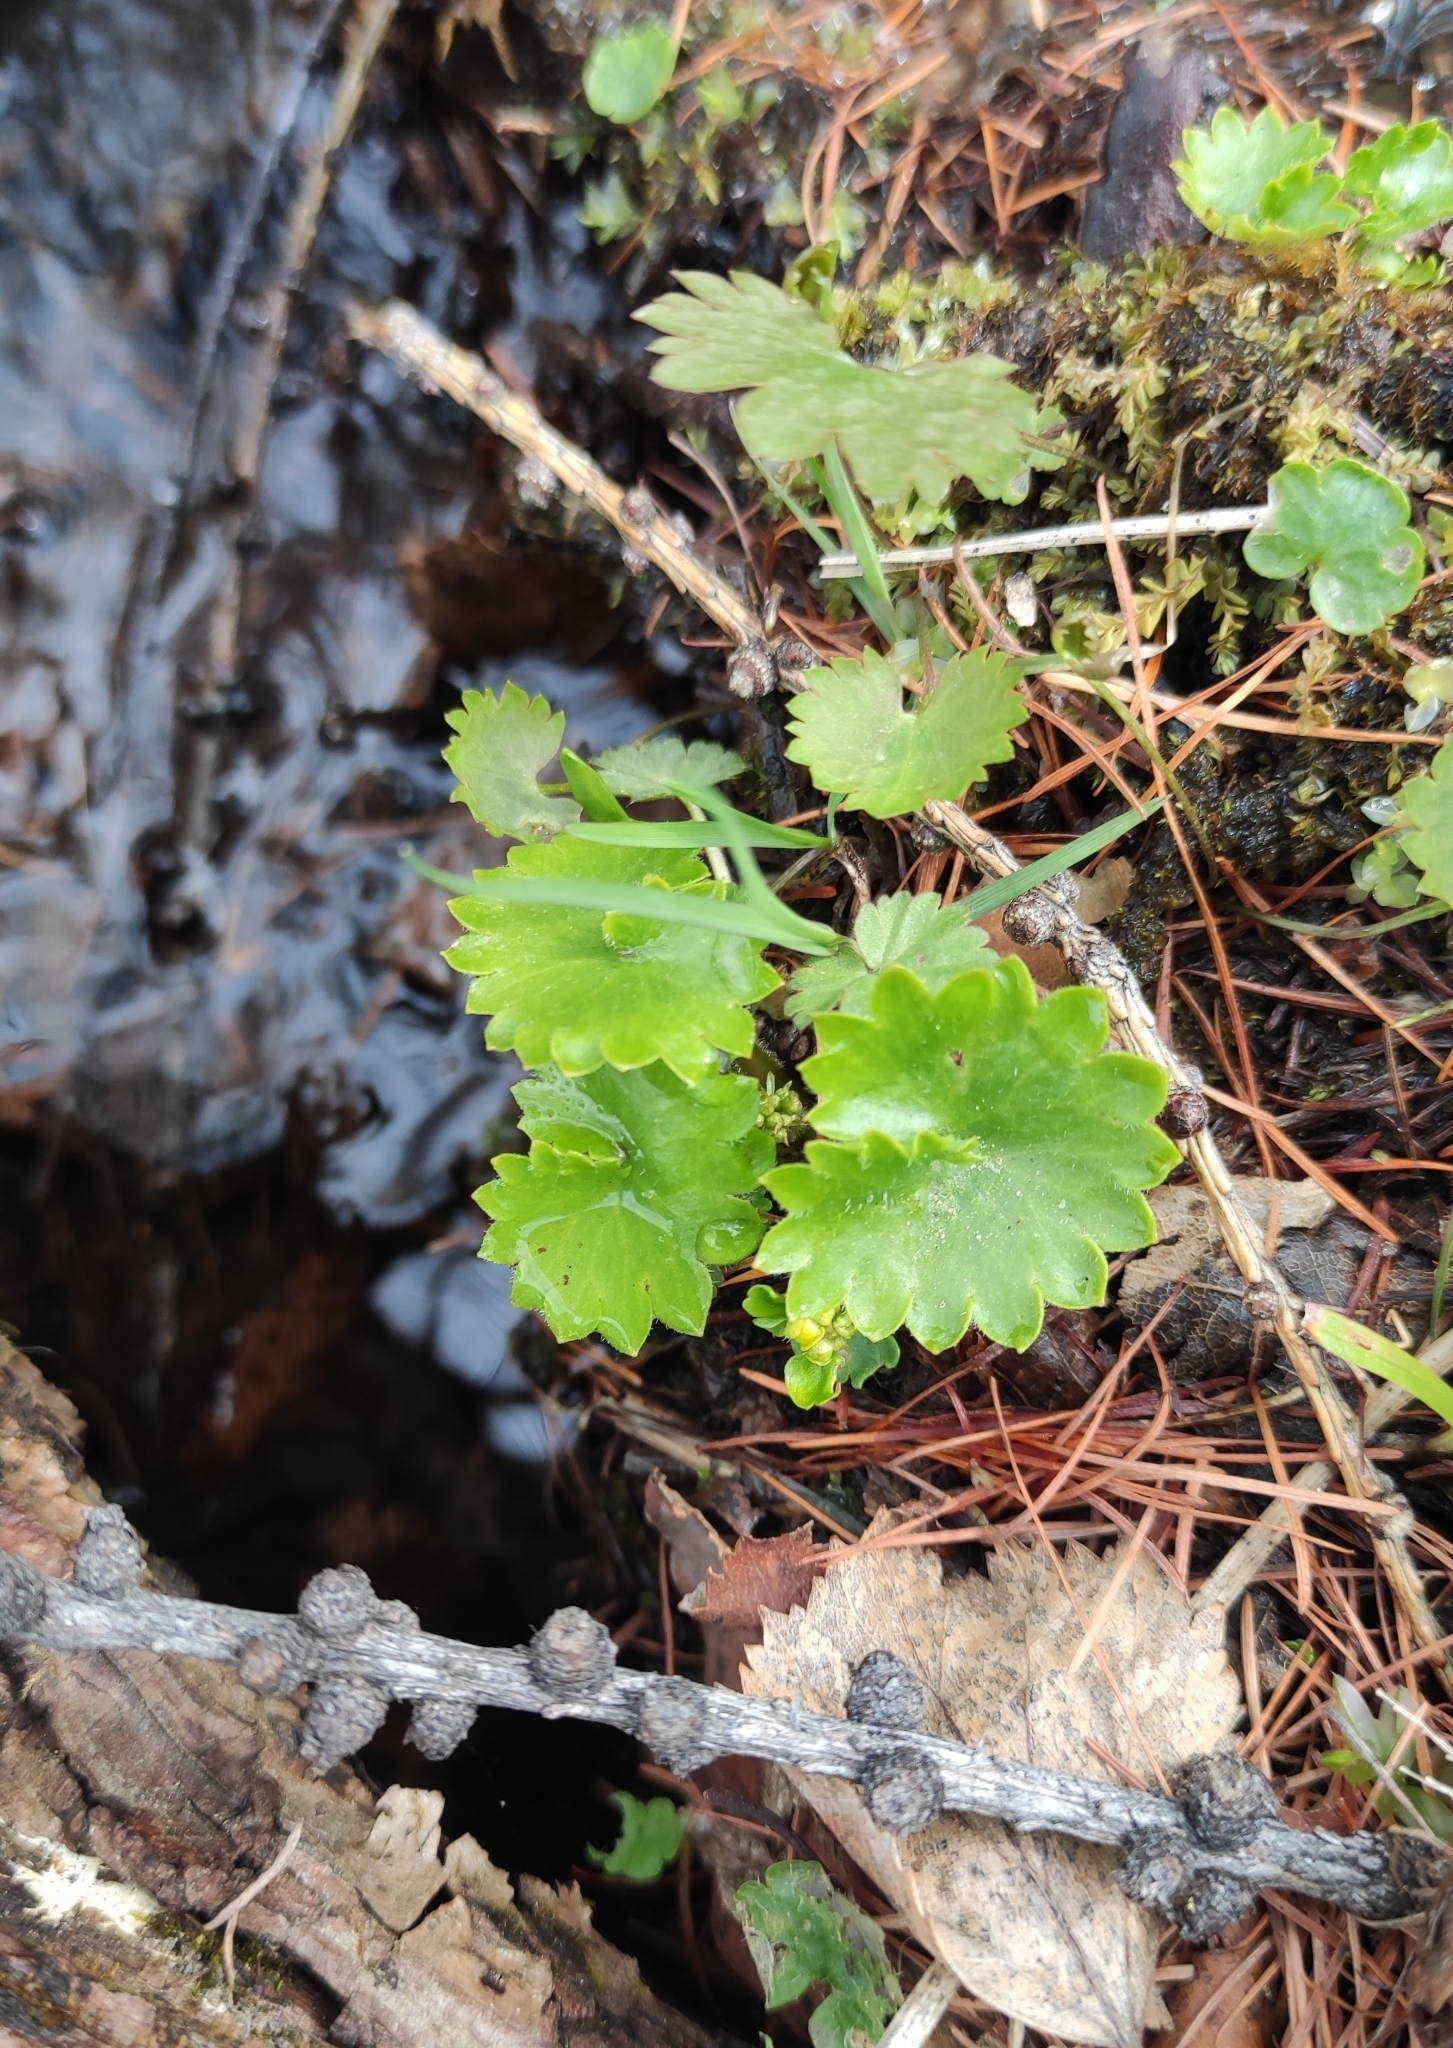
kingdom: Plantae
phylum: Tracheophyta
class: Magnoliopsida
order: Saxifragales
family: Saxifragaceae
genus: Micranthes
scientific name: Micranthes nelsoniana
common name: Nelson's saxifrage
